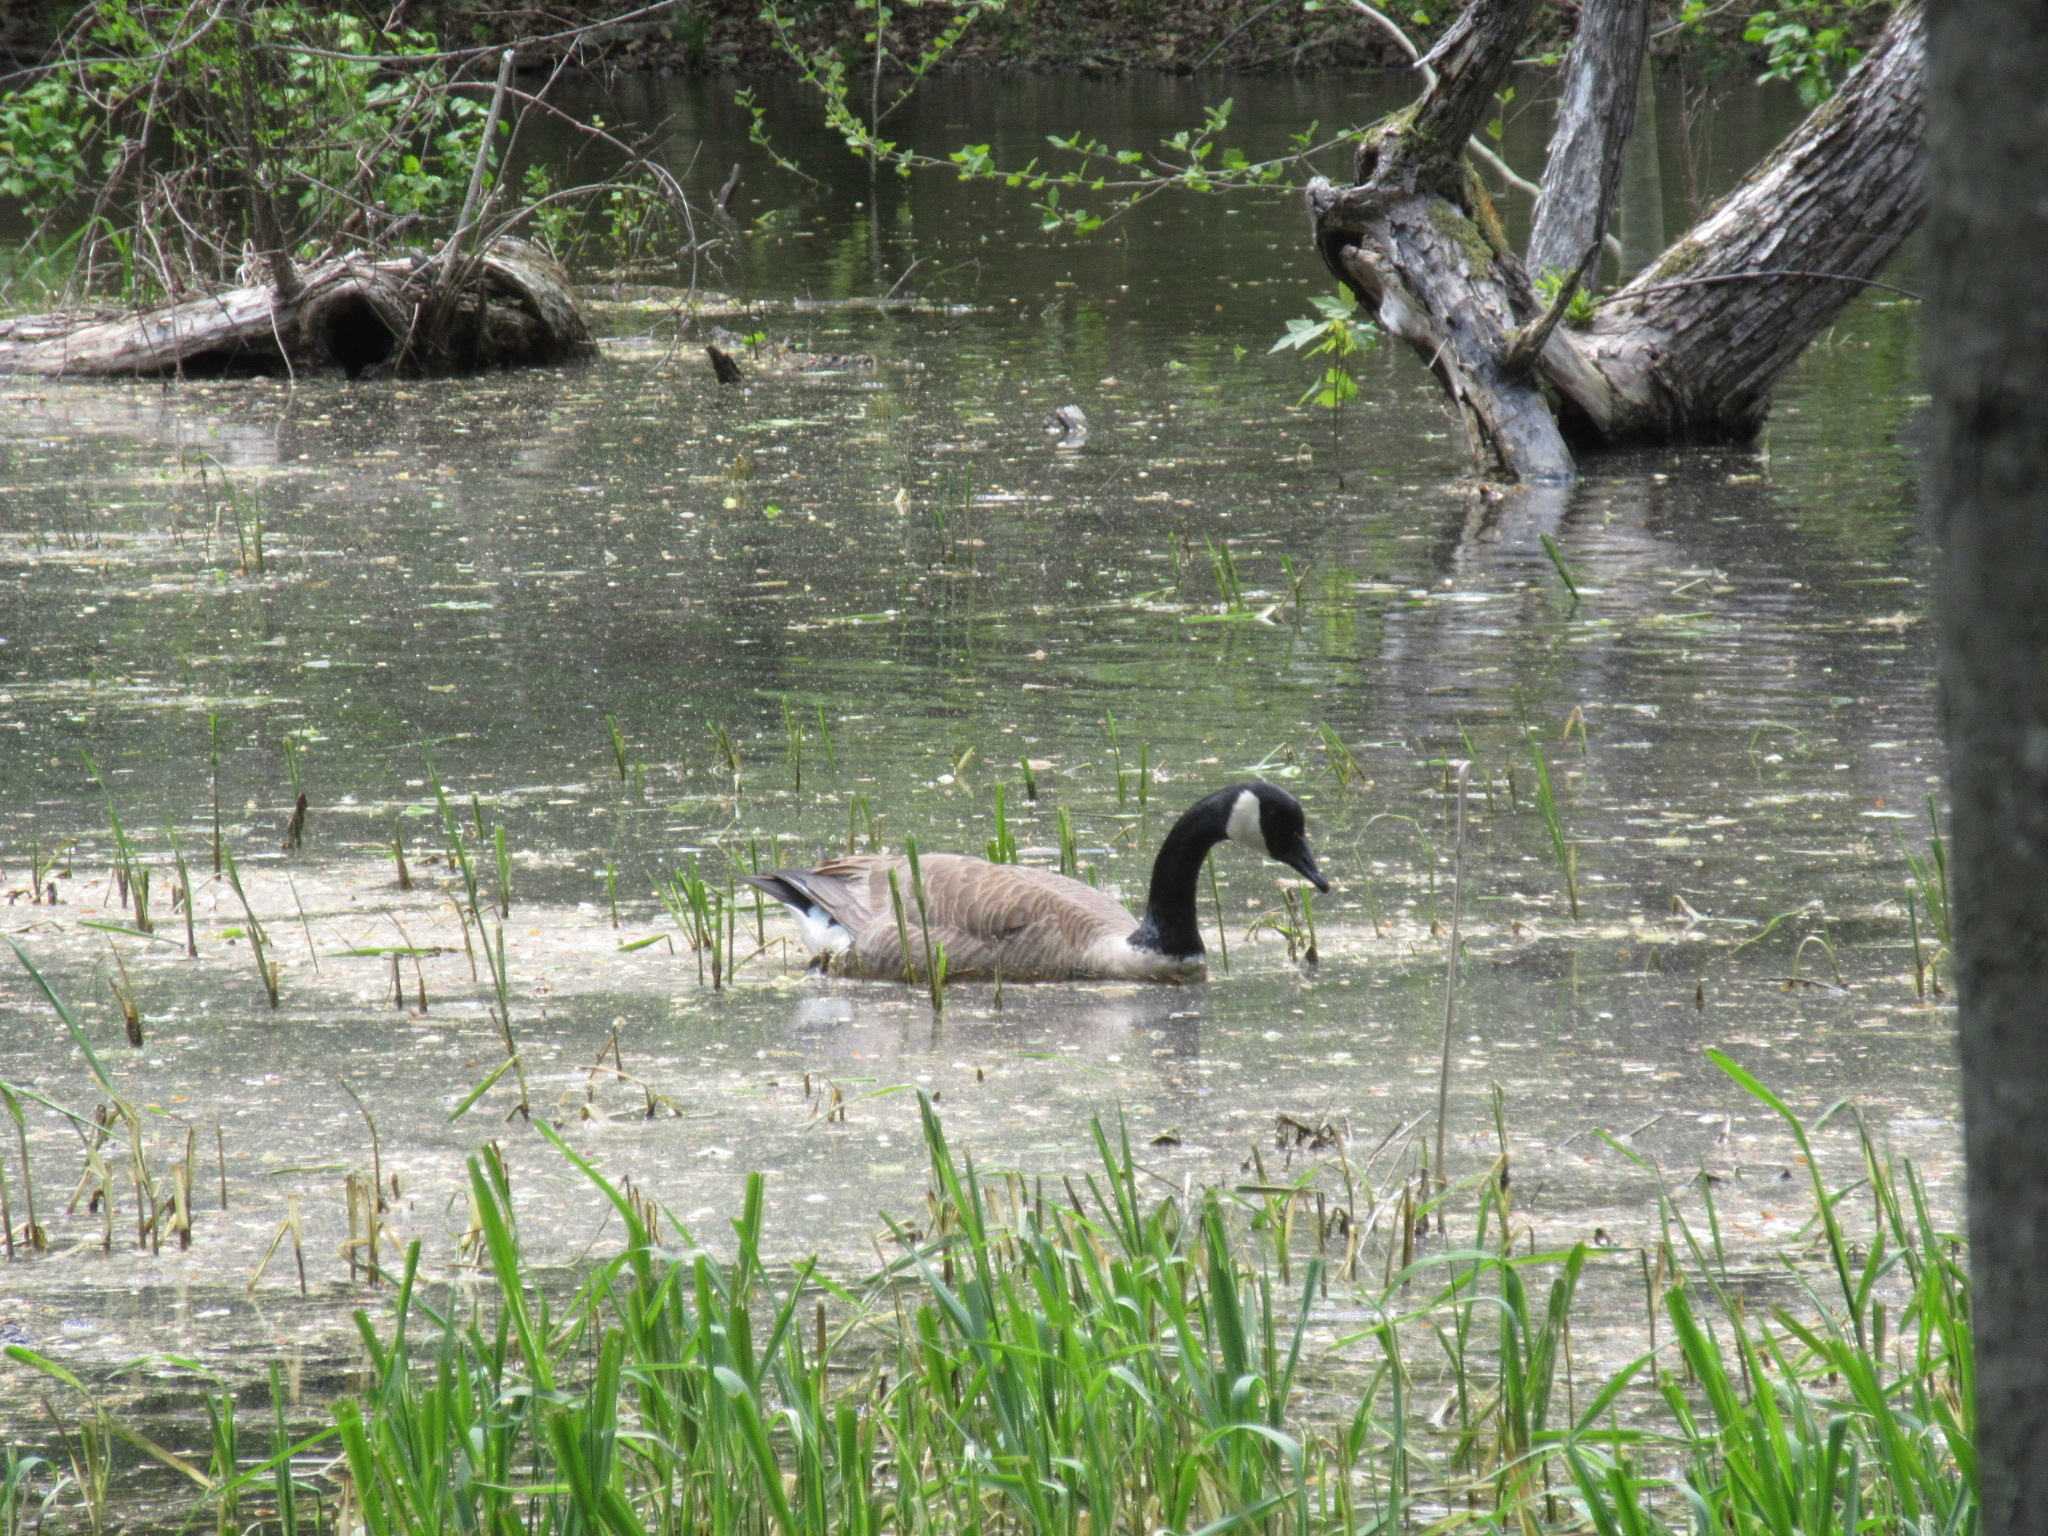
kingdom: Animalia
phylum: Chordata
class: Aves
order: Anseriformes
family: Anatidae
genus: Branta
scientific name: Branta canadensis
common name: Canada goose
